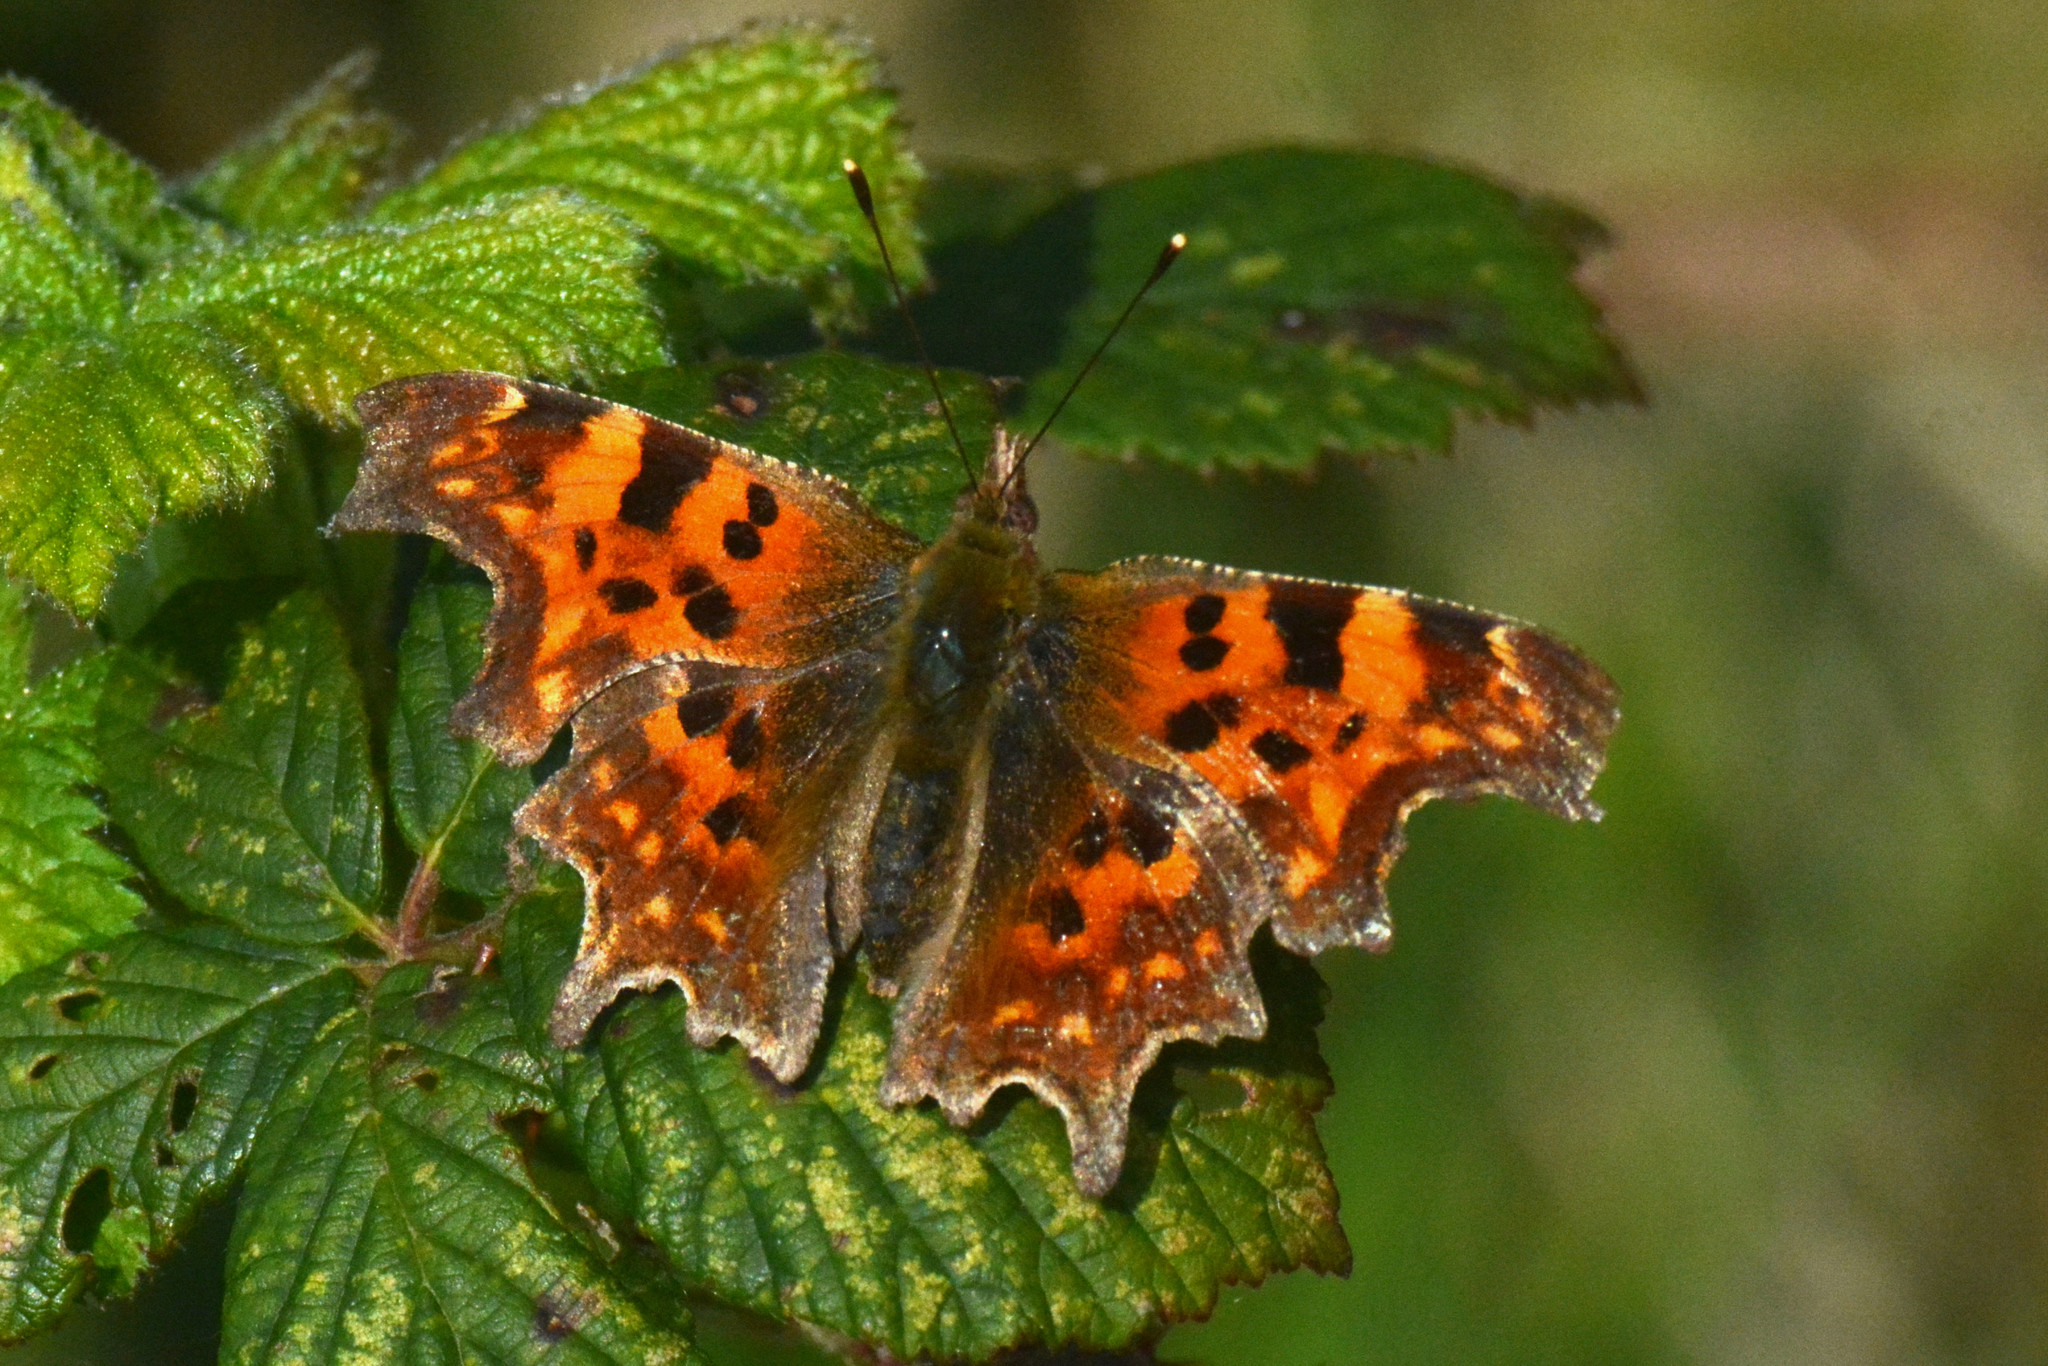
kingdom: Animalia
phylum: Arthropoda
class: Insecta
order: Lepidoptera
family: Nymphalidae
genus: Polygonia
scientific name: Polygonia c-album
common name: Comma
